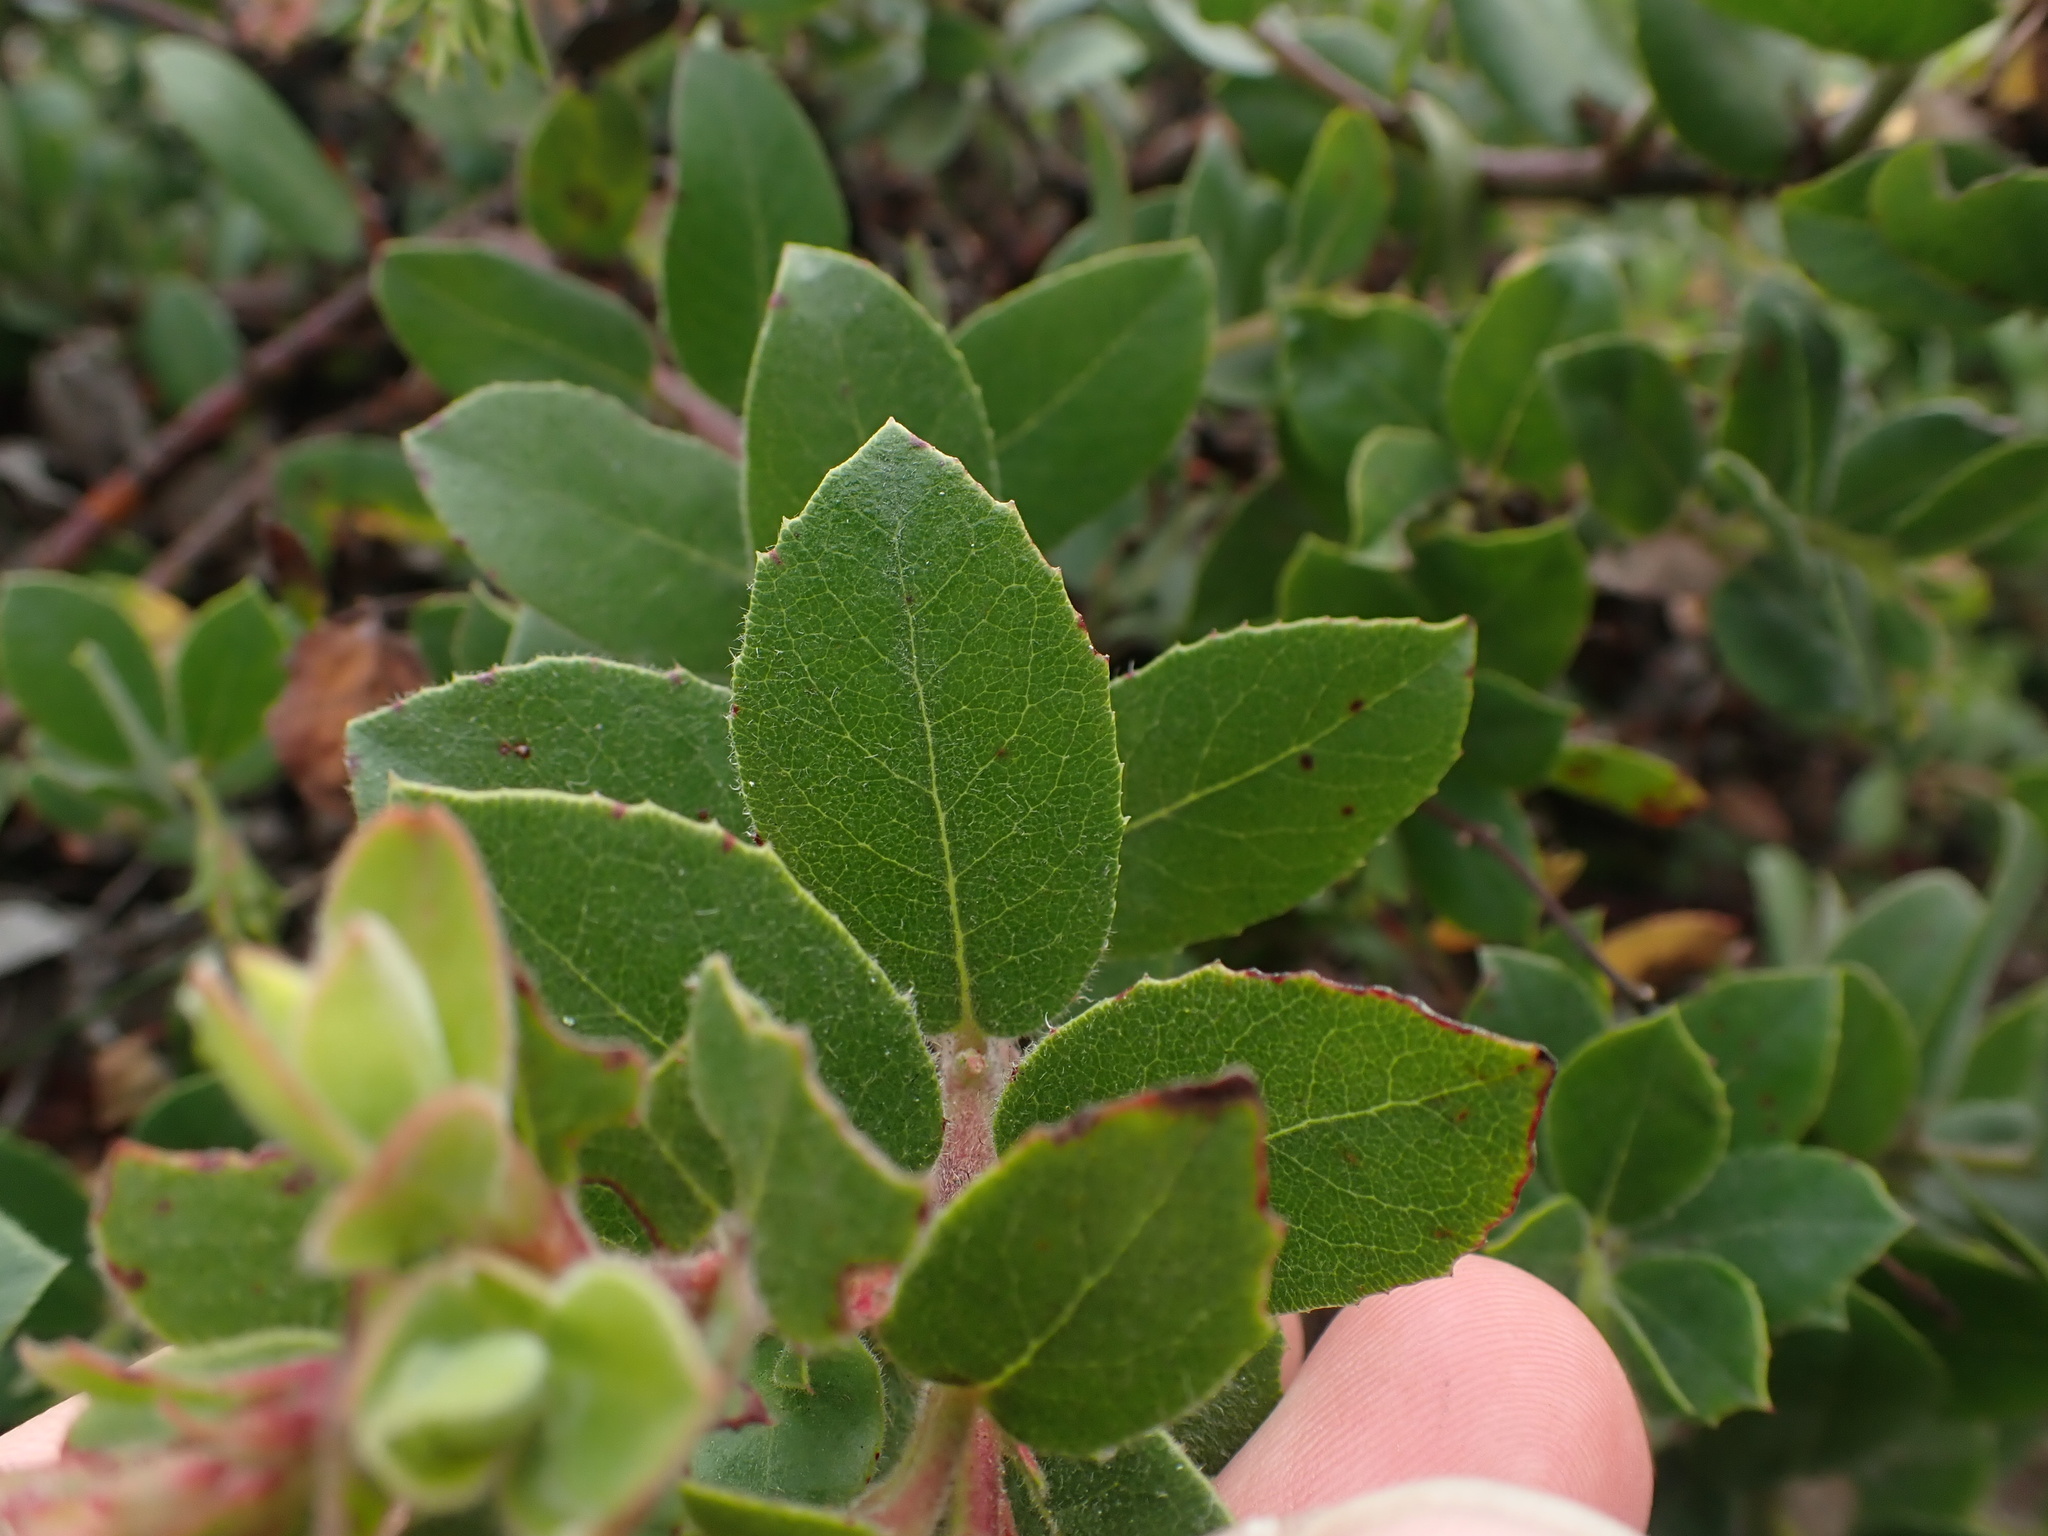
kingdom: Plantae
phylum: Tracheophyta
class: Magnoliopsida
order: Ericales
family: Ericaceae
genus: Arctostaphylos
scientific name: Arctostaphylos pacifica
